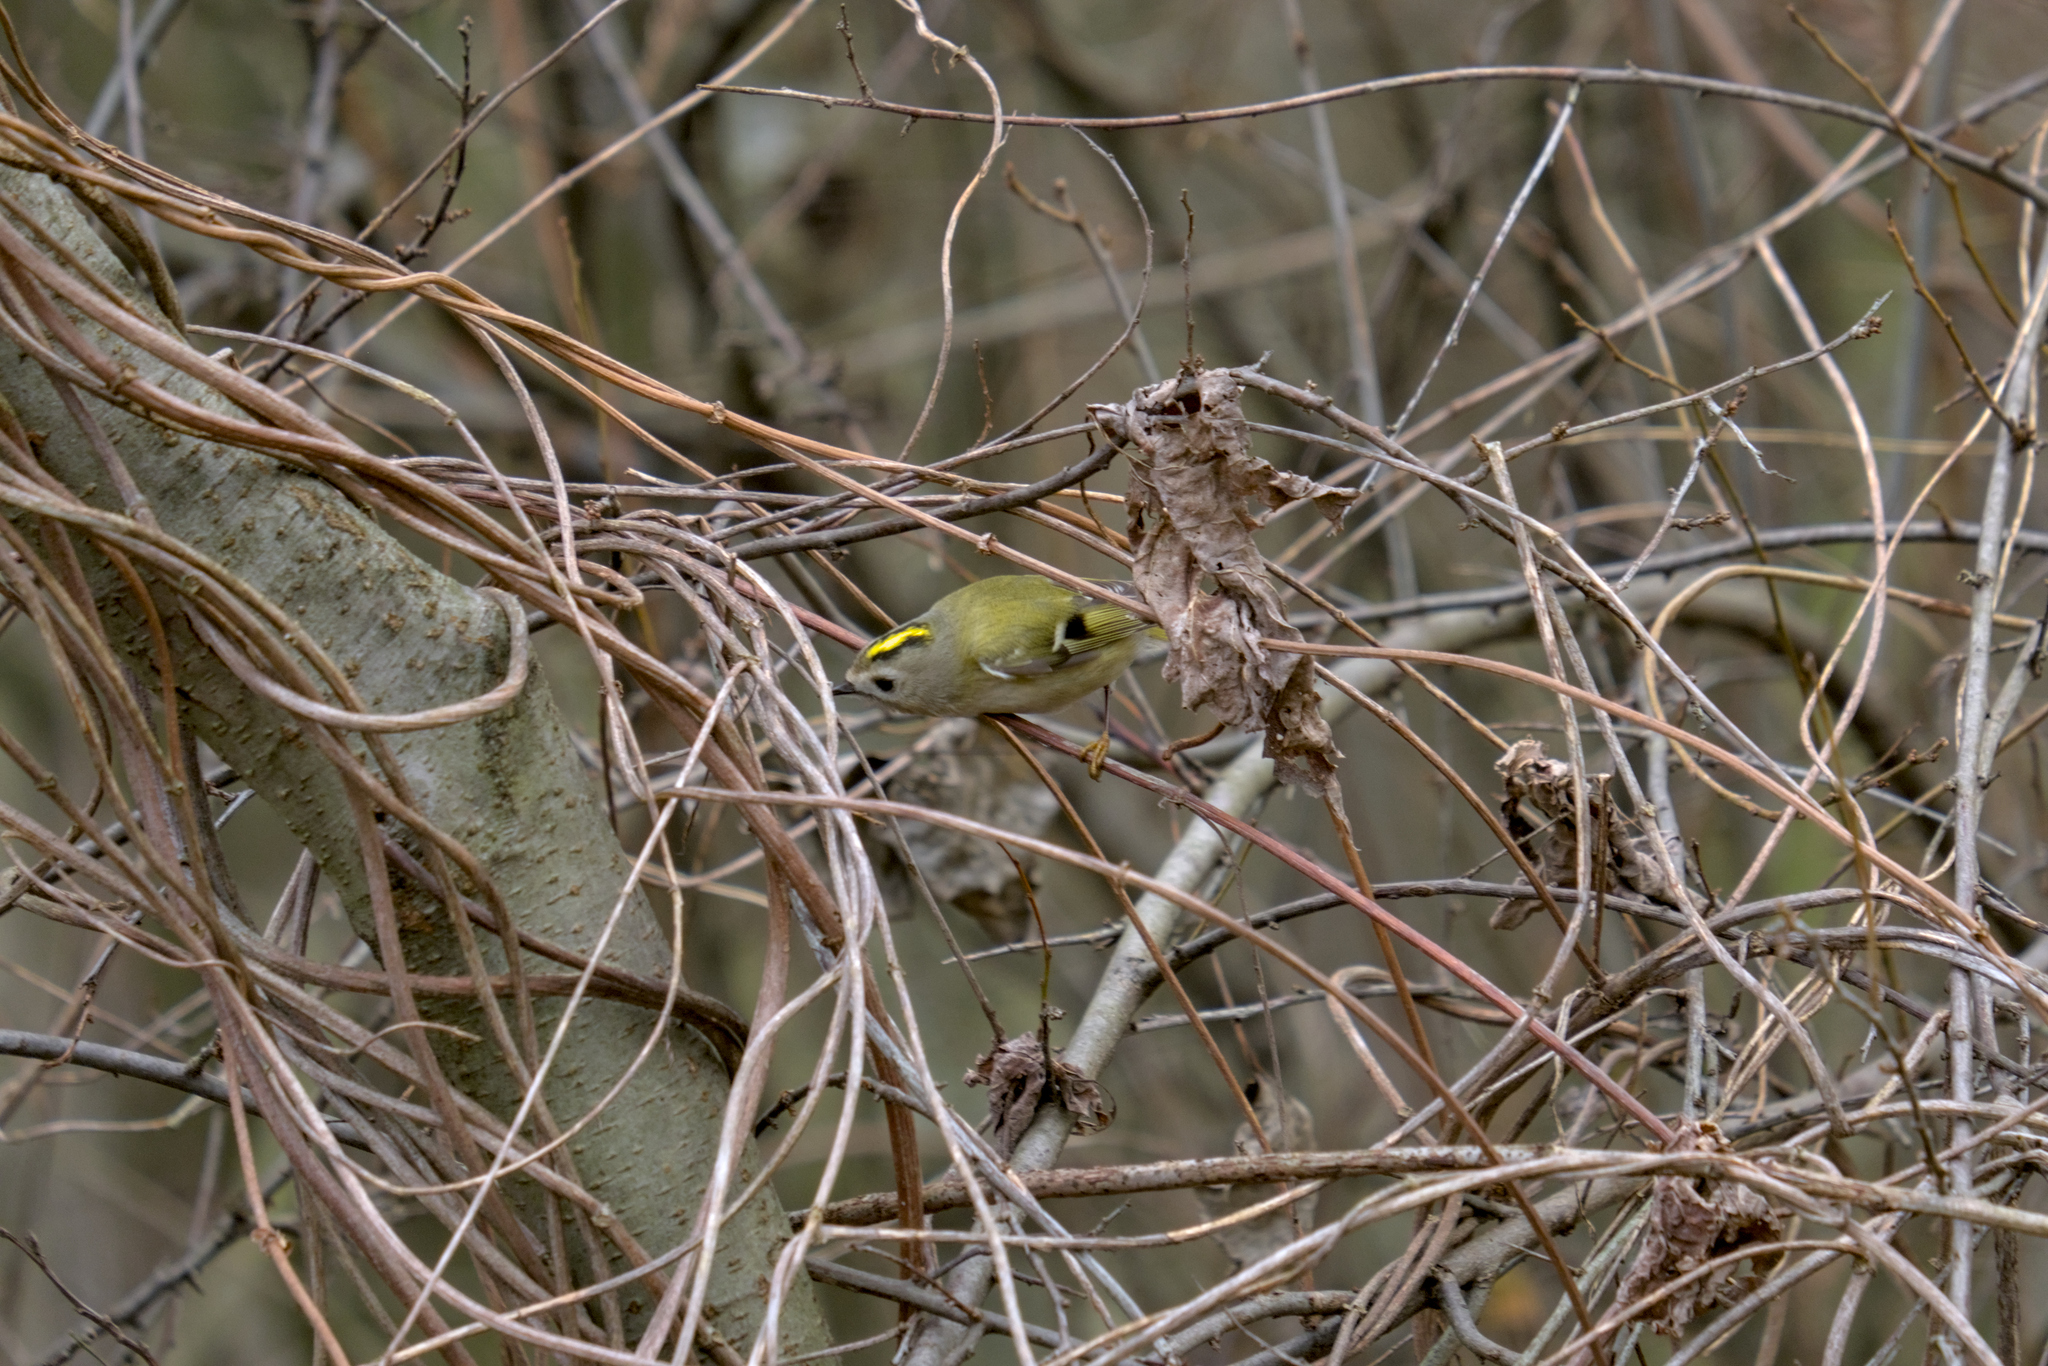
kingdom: Animalia
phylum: Chordata
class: Aves
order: Passeriformes
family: Regulidae
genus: Regulus
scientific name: Regulus regulus
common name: Goldcrest
